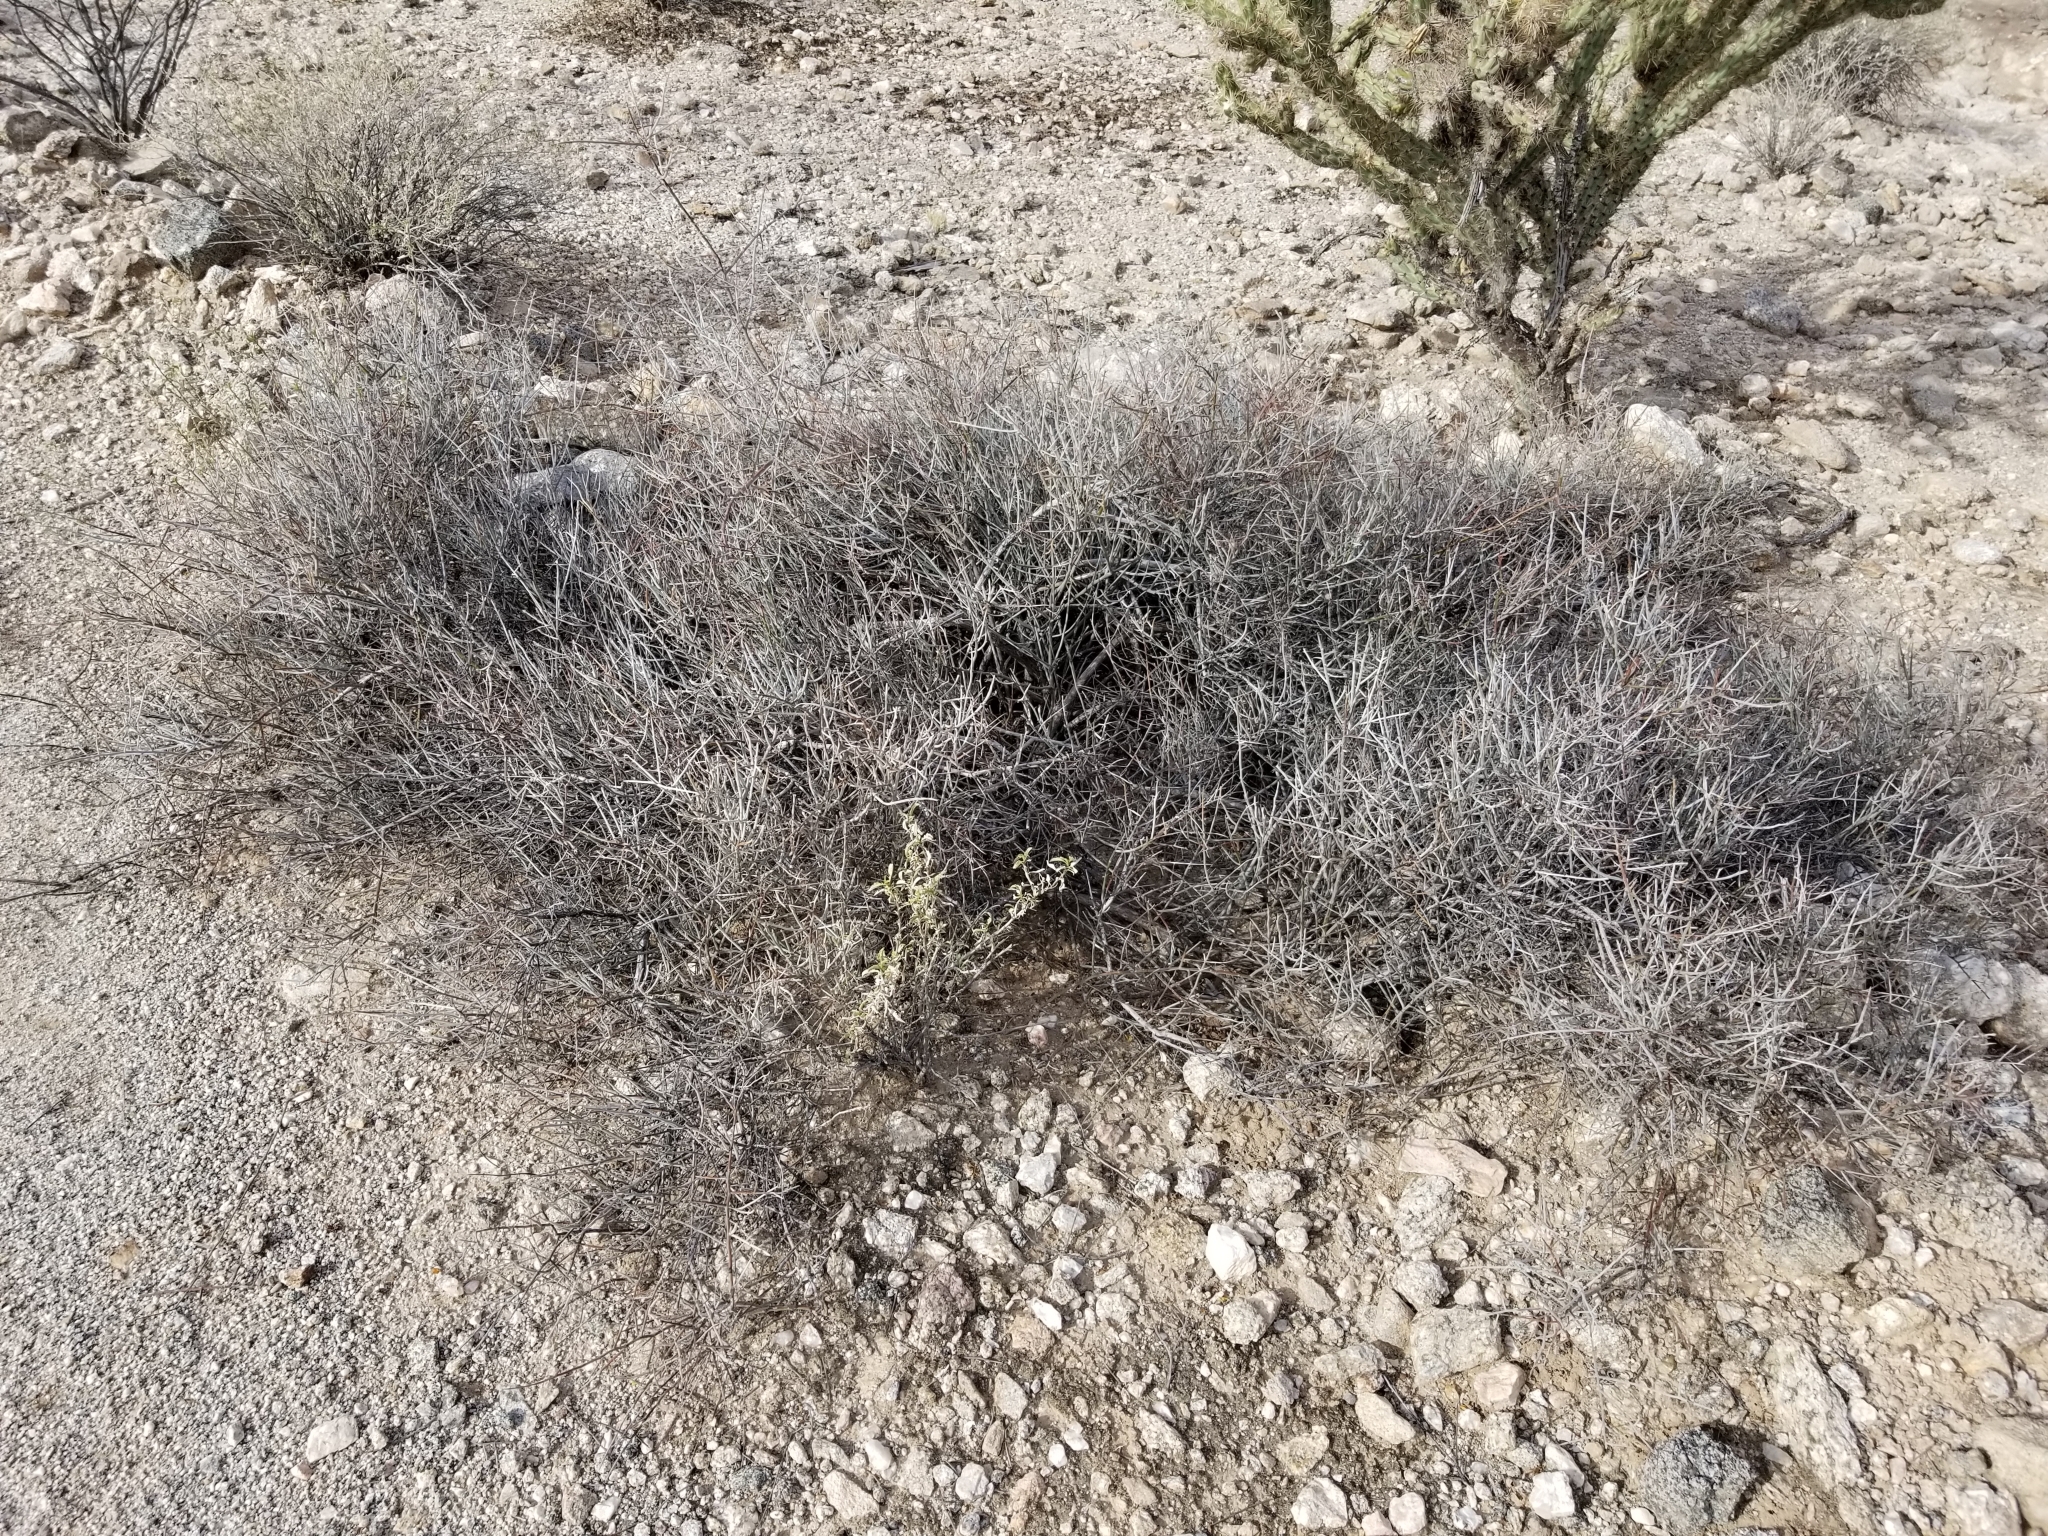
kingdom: Plantae
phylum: Tracheophyta
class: Magnoliopsida
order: Zygophyllales
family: Krameriaceae
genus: Krameria
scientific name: Krameria bicolor
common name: White ratany
